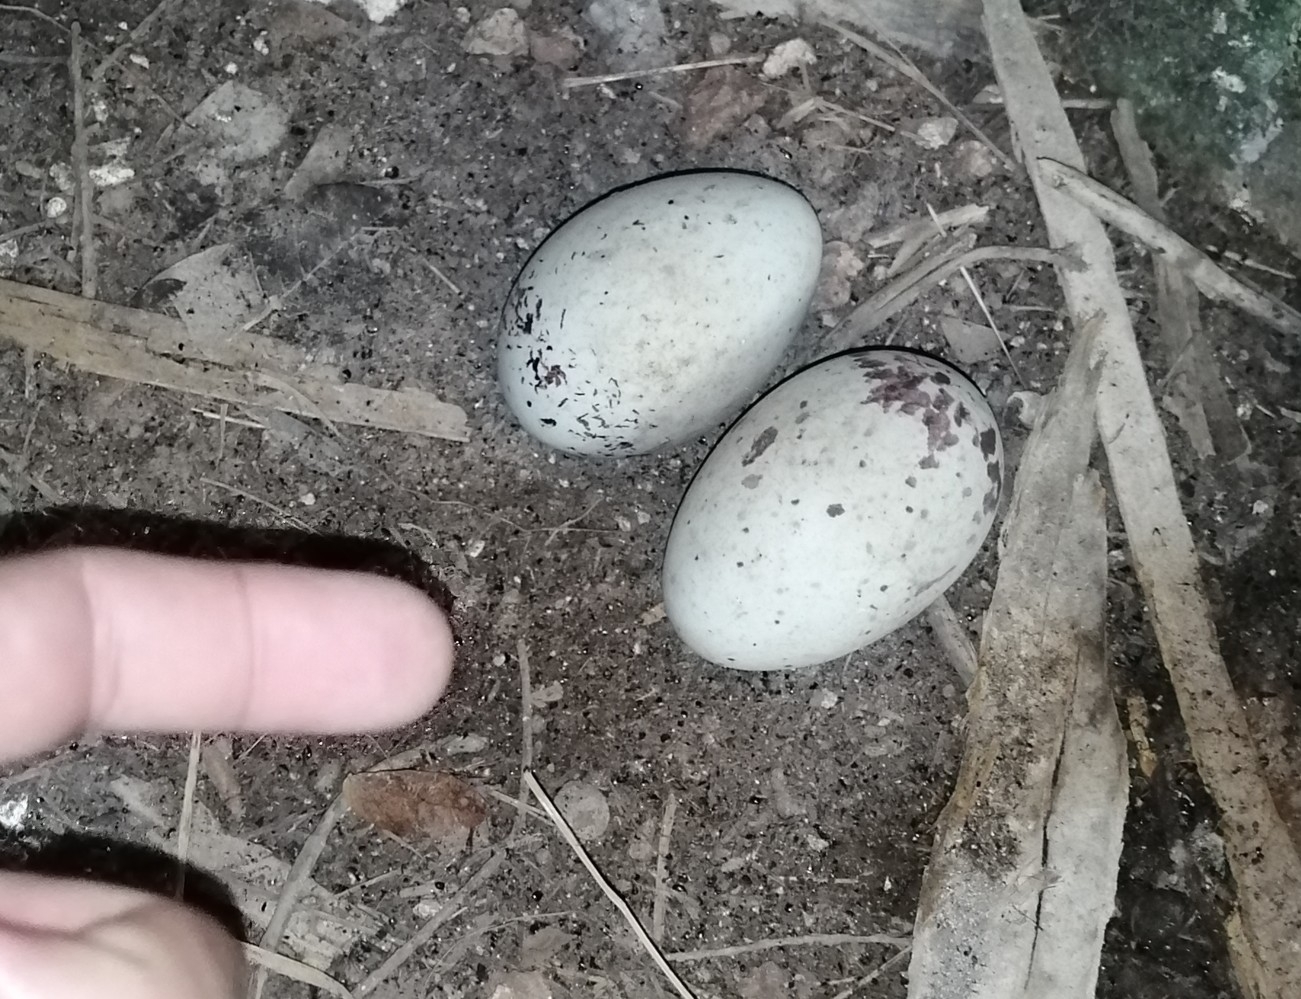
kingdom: Animalia
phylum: Chordata
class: Aves
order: Galliformes
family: Phasianidae
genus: Meleagris
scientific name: Meleagris ocellata
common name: Ocellated turkey
